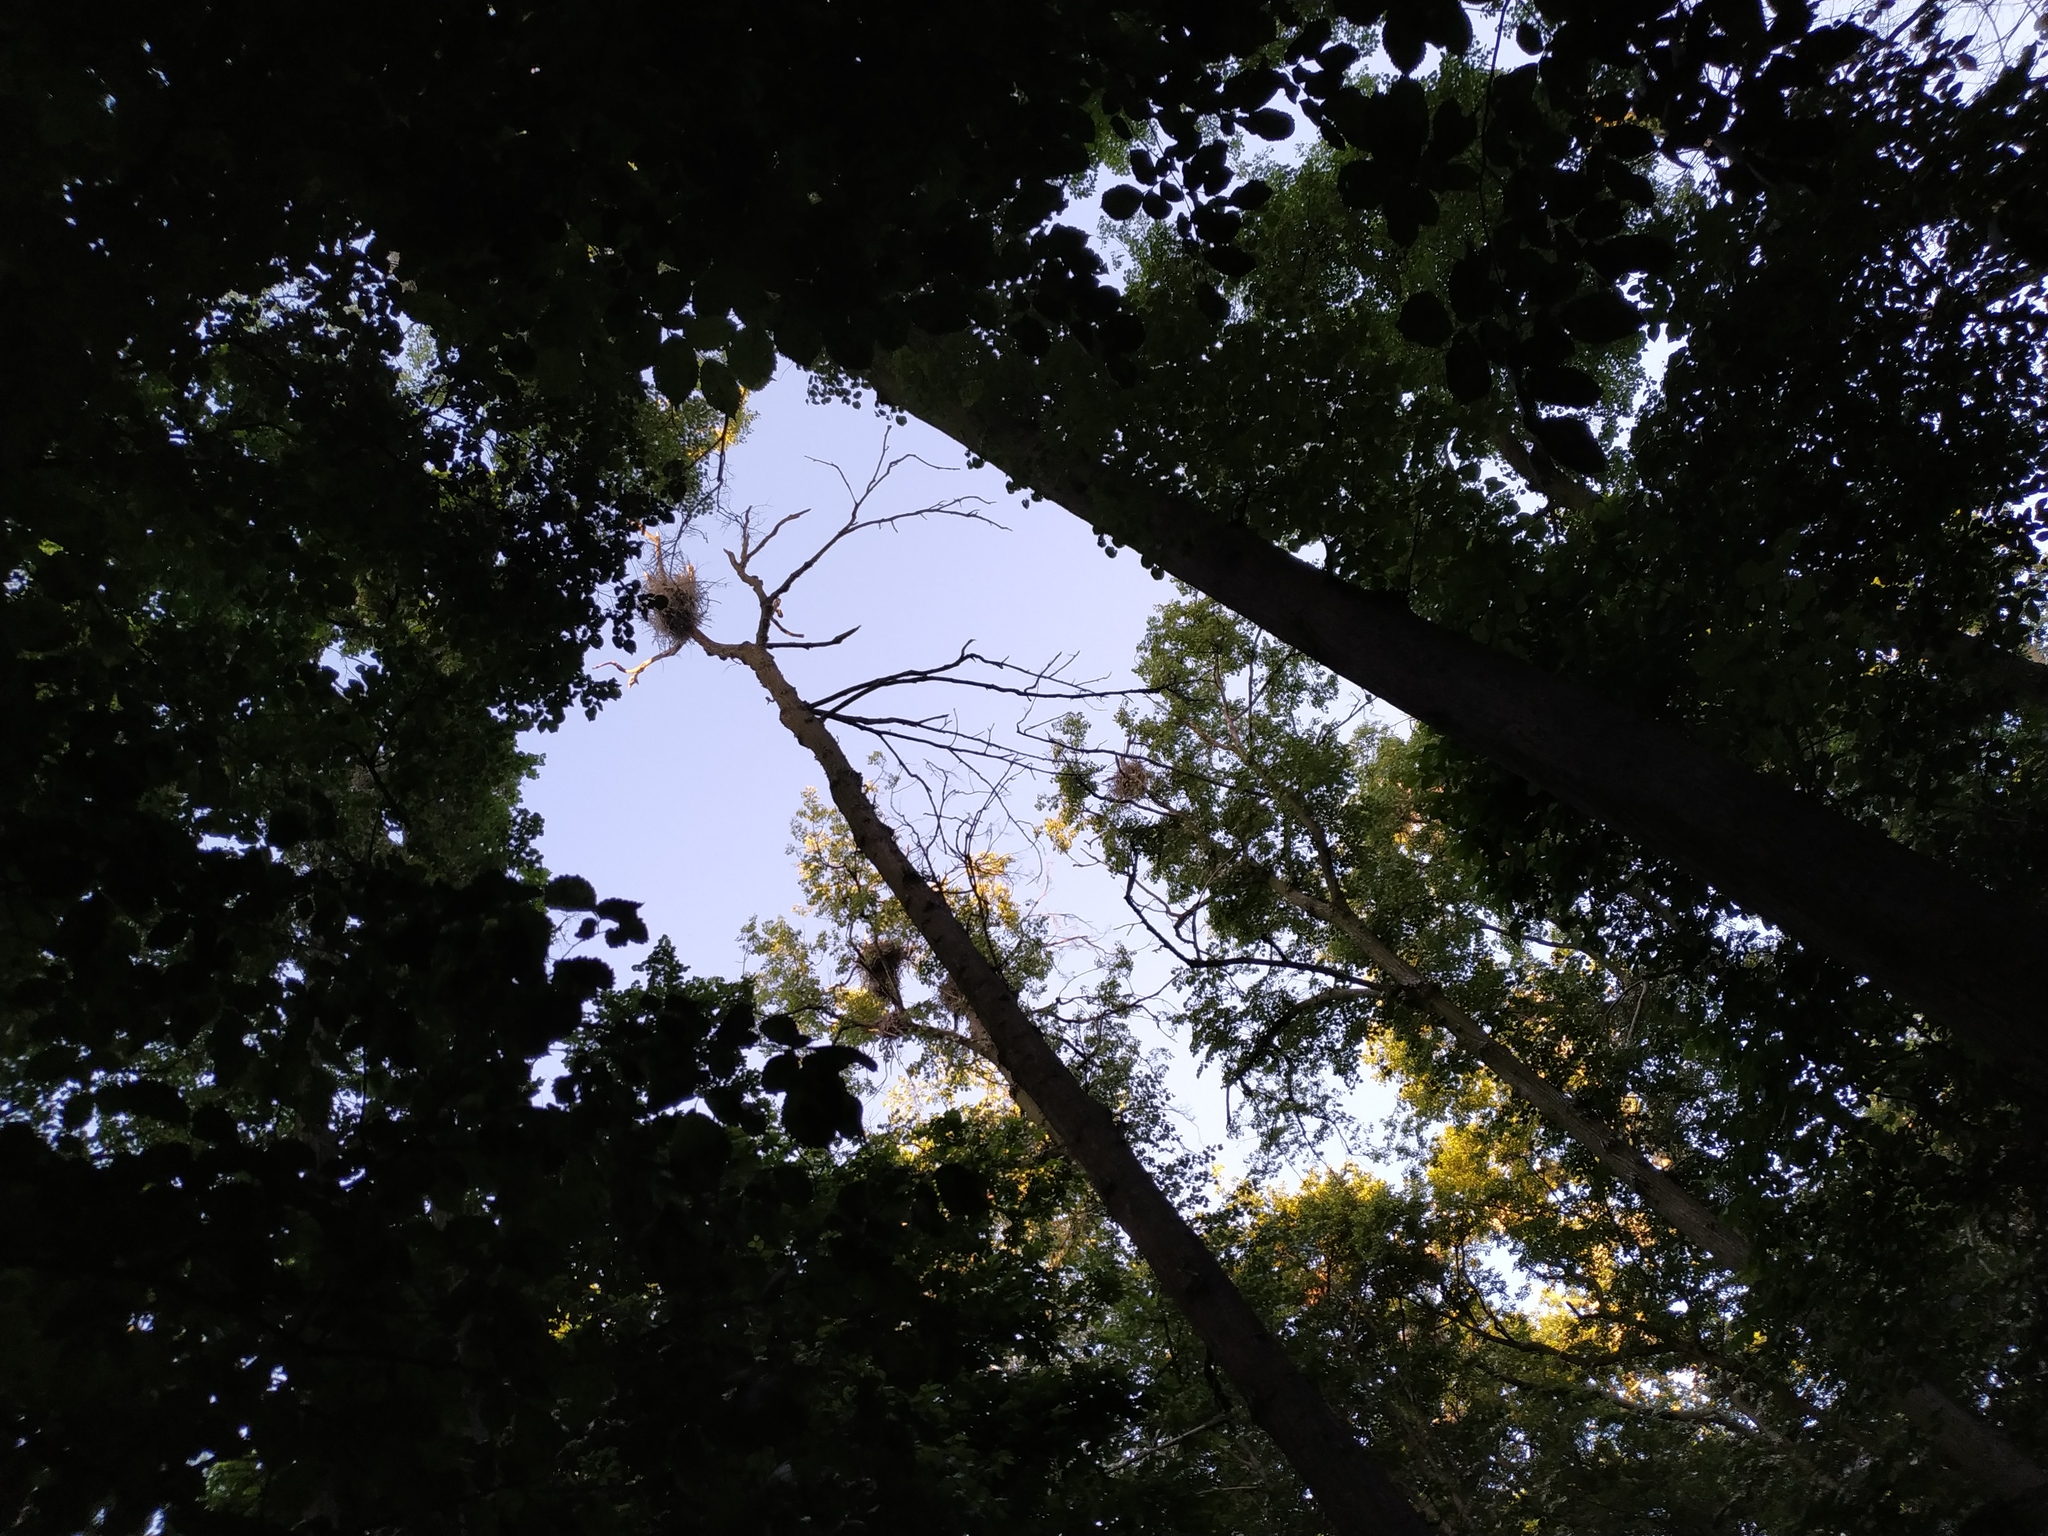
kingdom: Animalia
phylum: Chordata
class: Aves
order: Pelecaniformes
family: Ardeidae
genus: Ardea
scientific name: Ardea cinerea
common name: Grey heron
